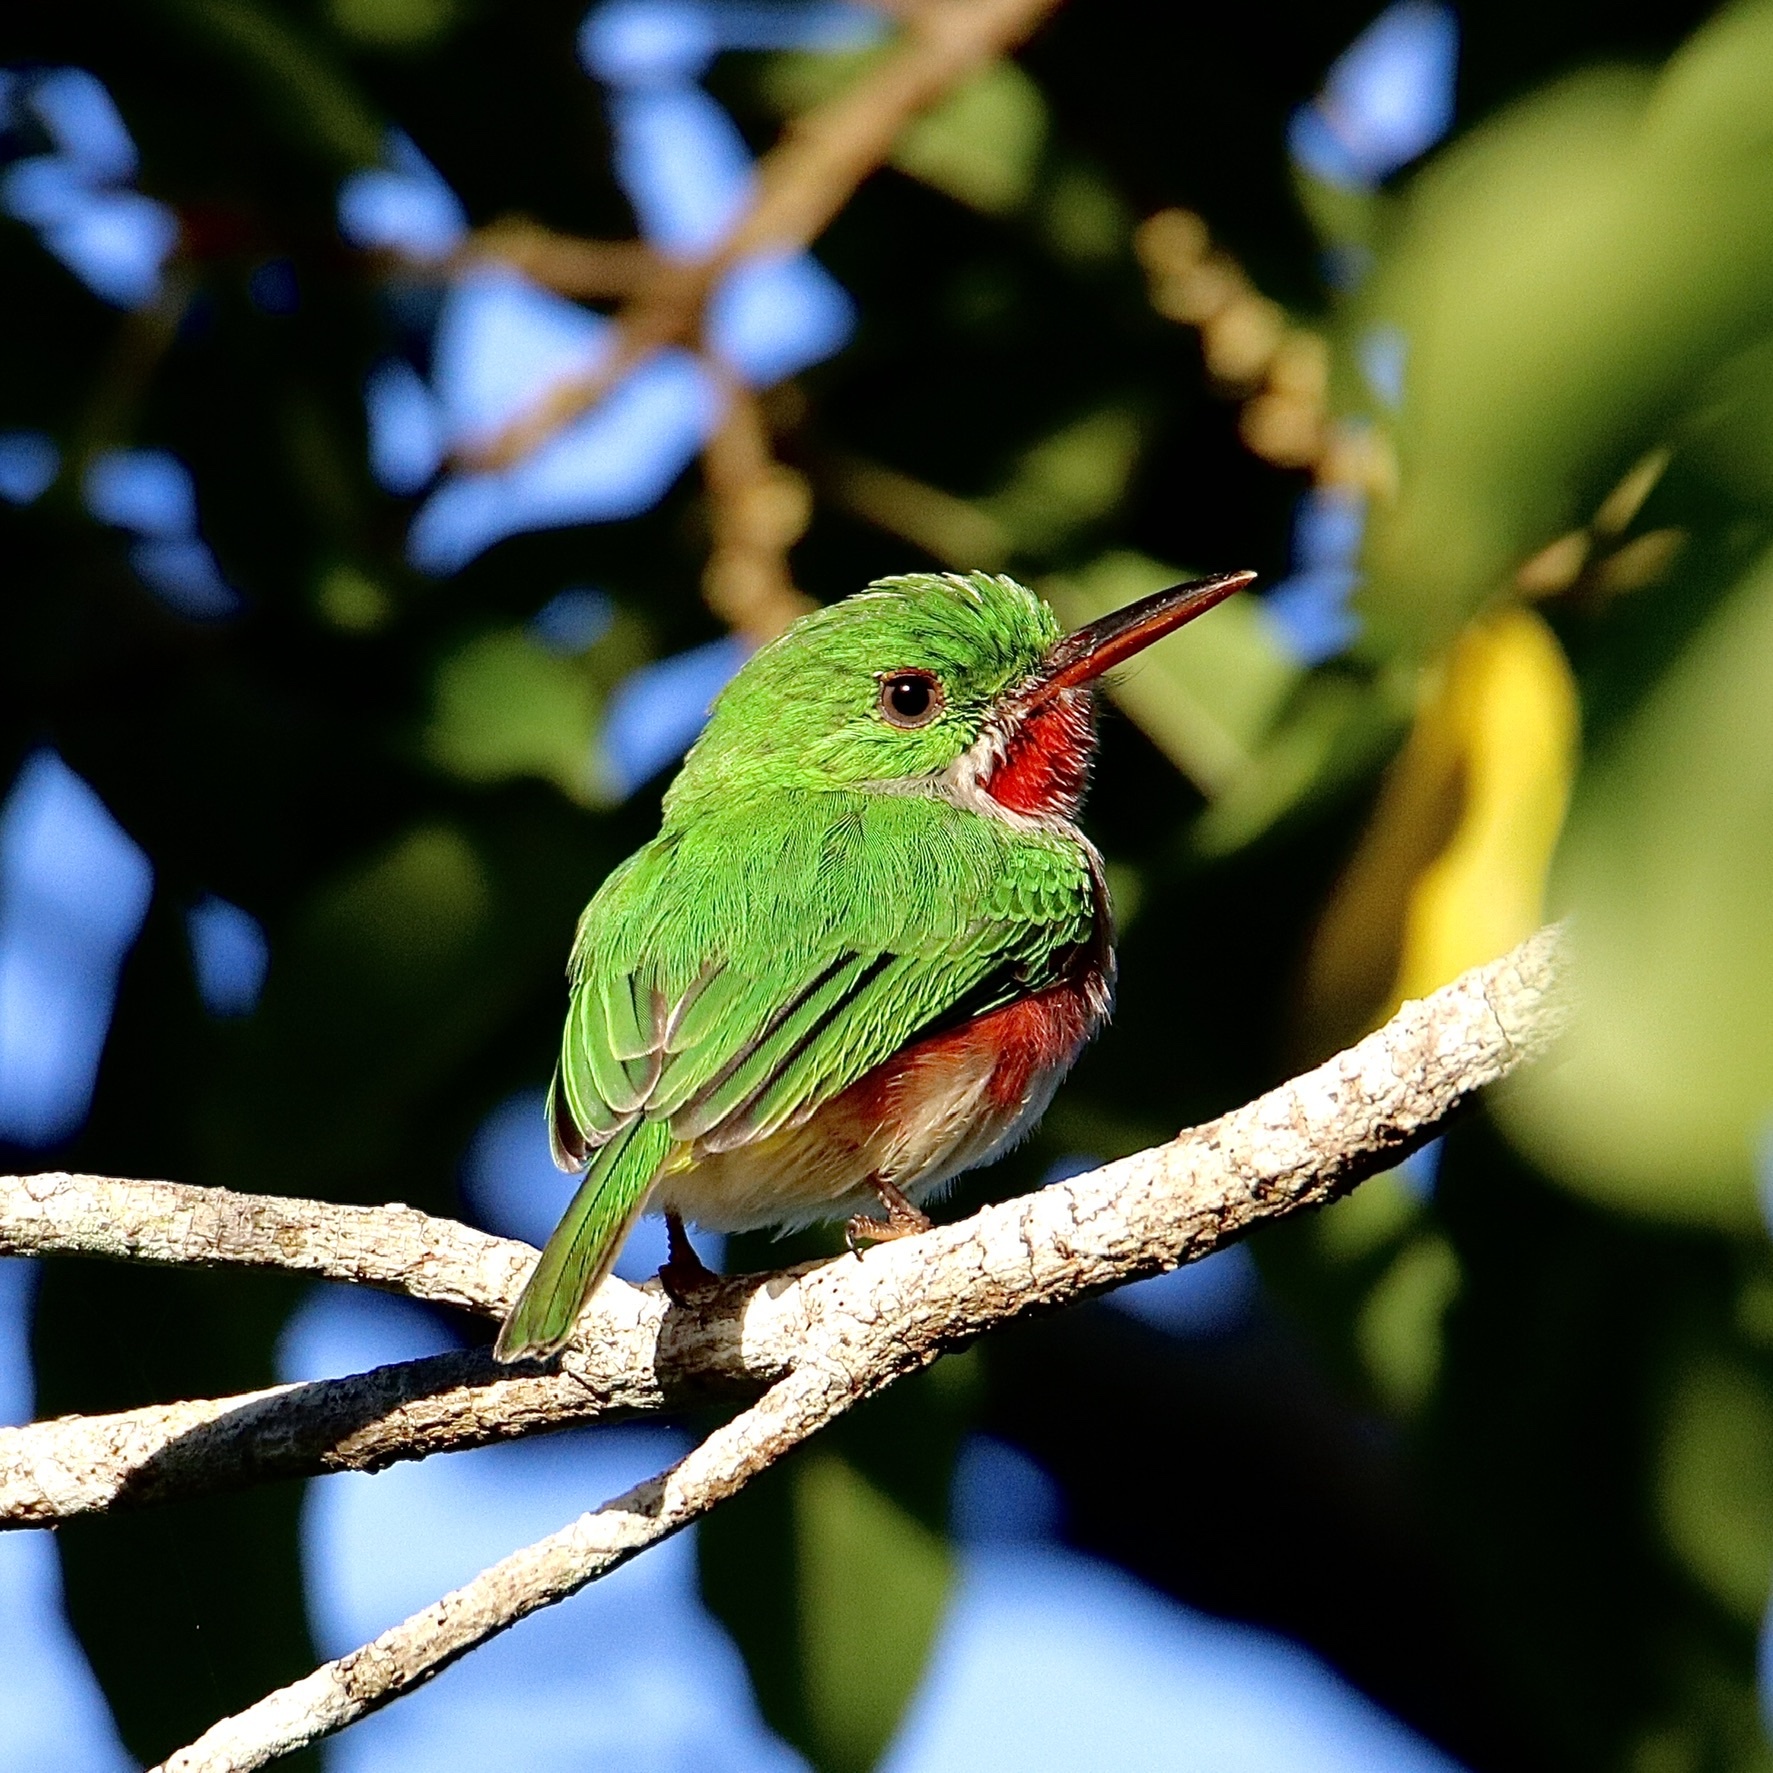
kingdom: Animalia
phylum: Chordata
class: Aves
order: Coraciiformes
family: Todidae
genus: Todus
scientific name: Todus subulatus
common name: Broad-billed tody
